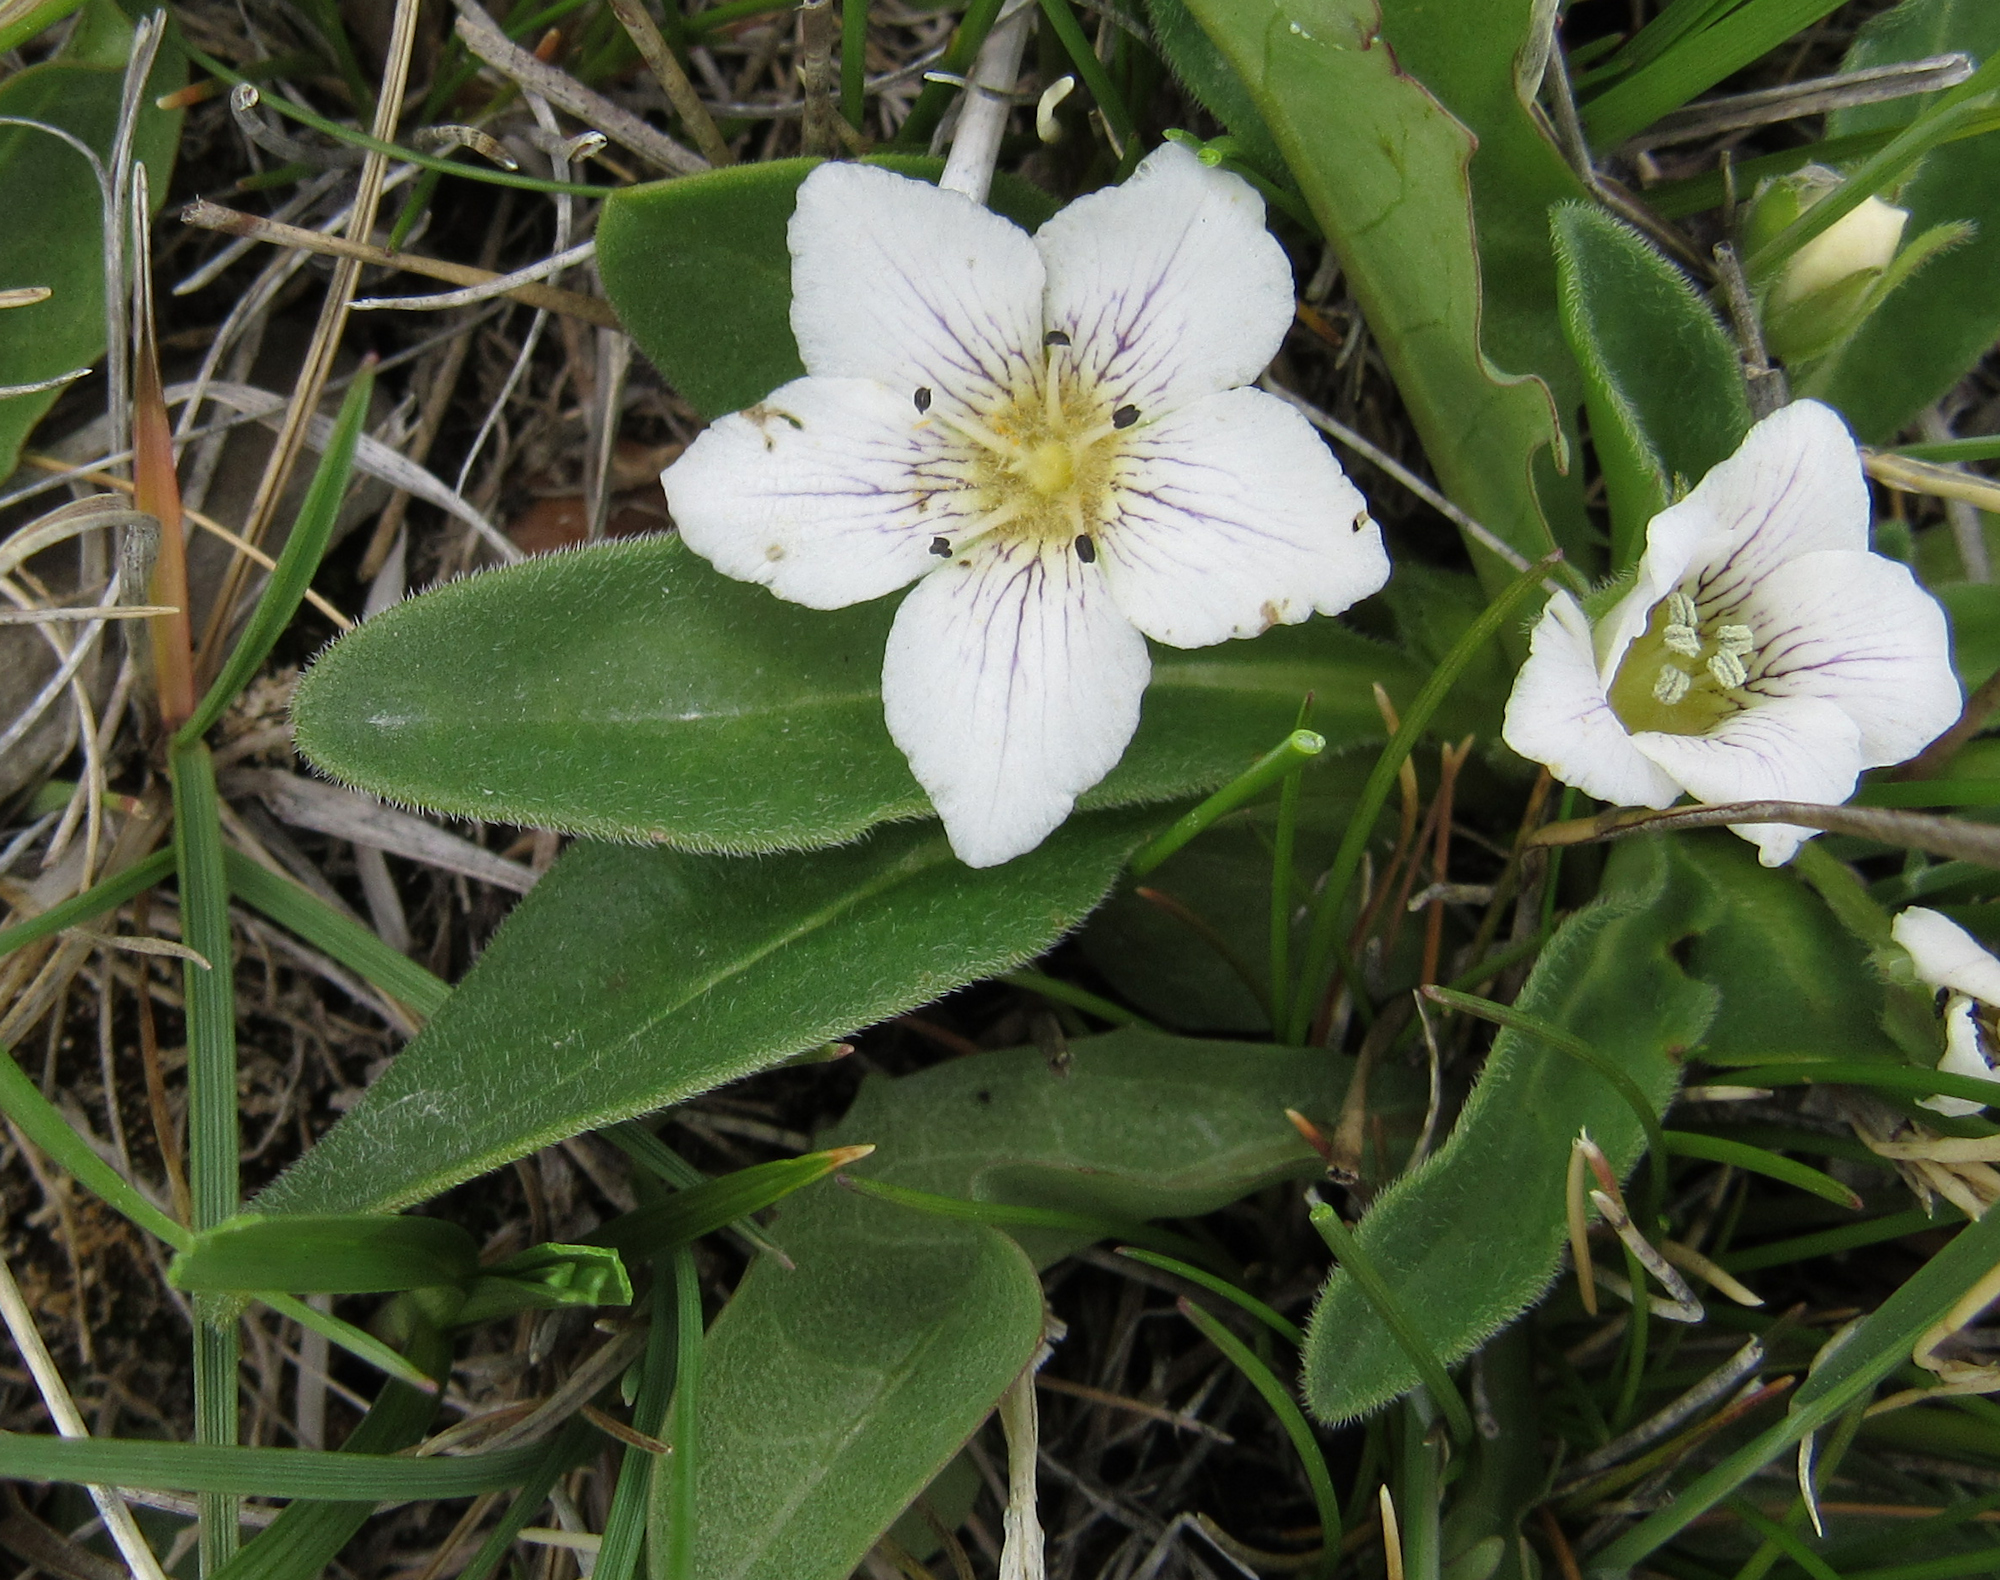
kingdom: Plantae
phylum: Tracheophyta
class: Magnoliopsida
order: Boraginales
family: Hydrophyllaceae
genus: Hesperochiron
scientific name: Hesperochiron californicus
